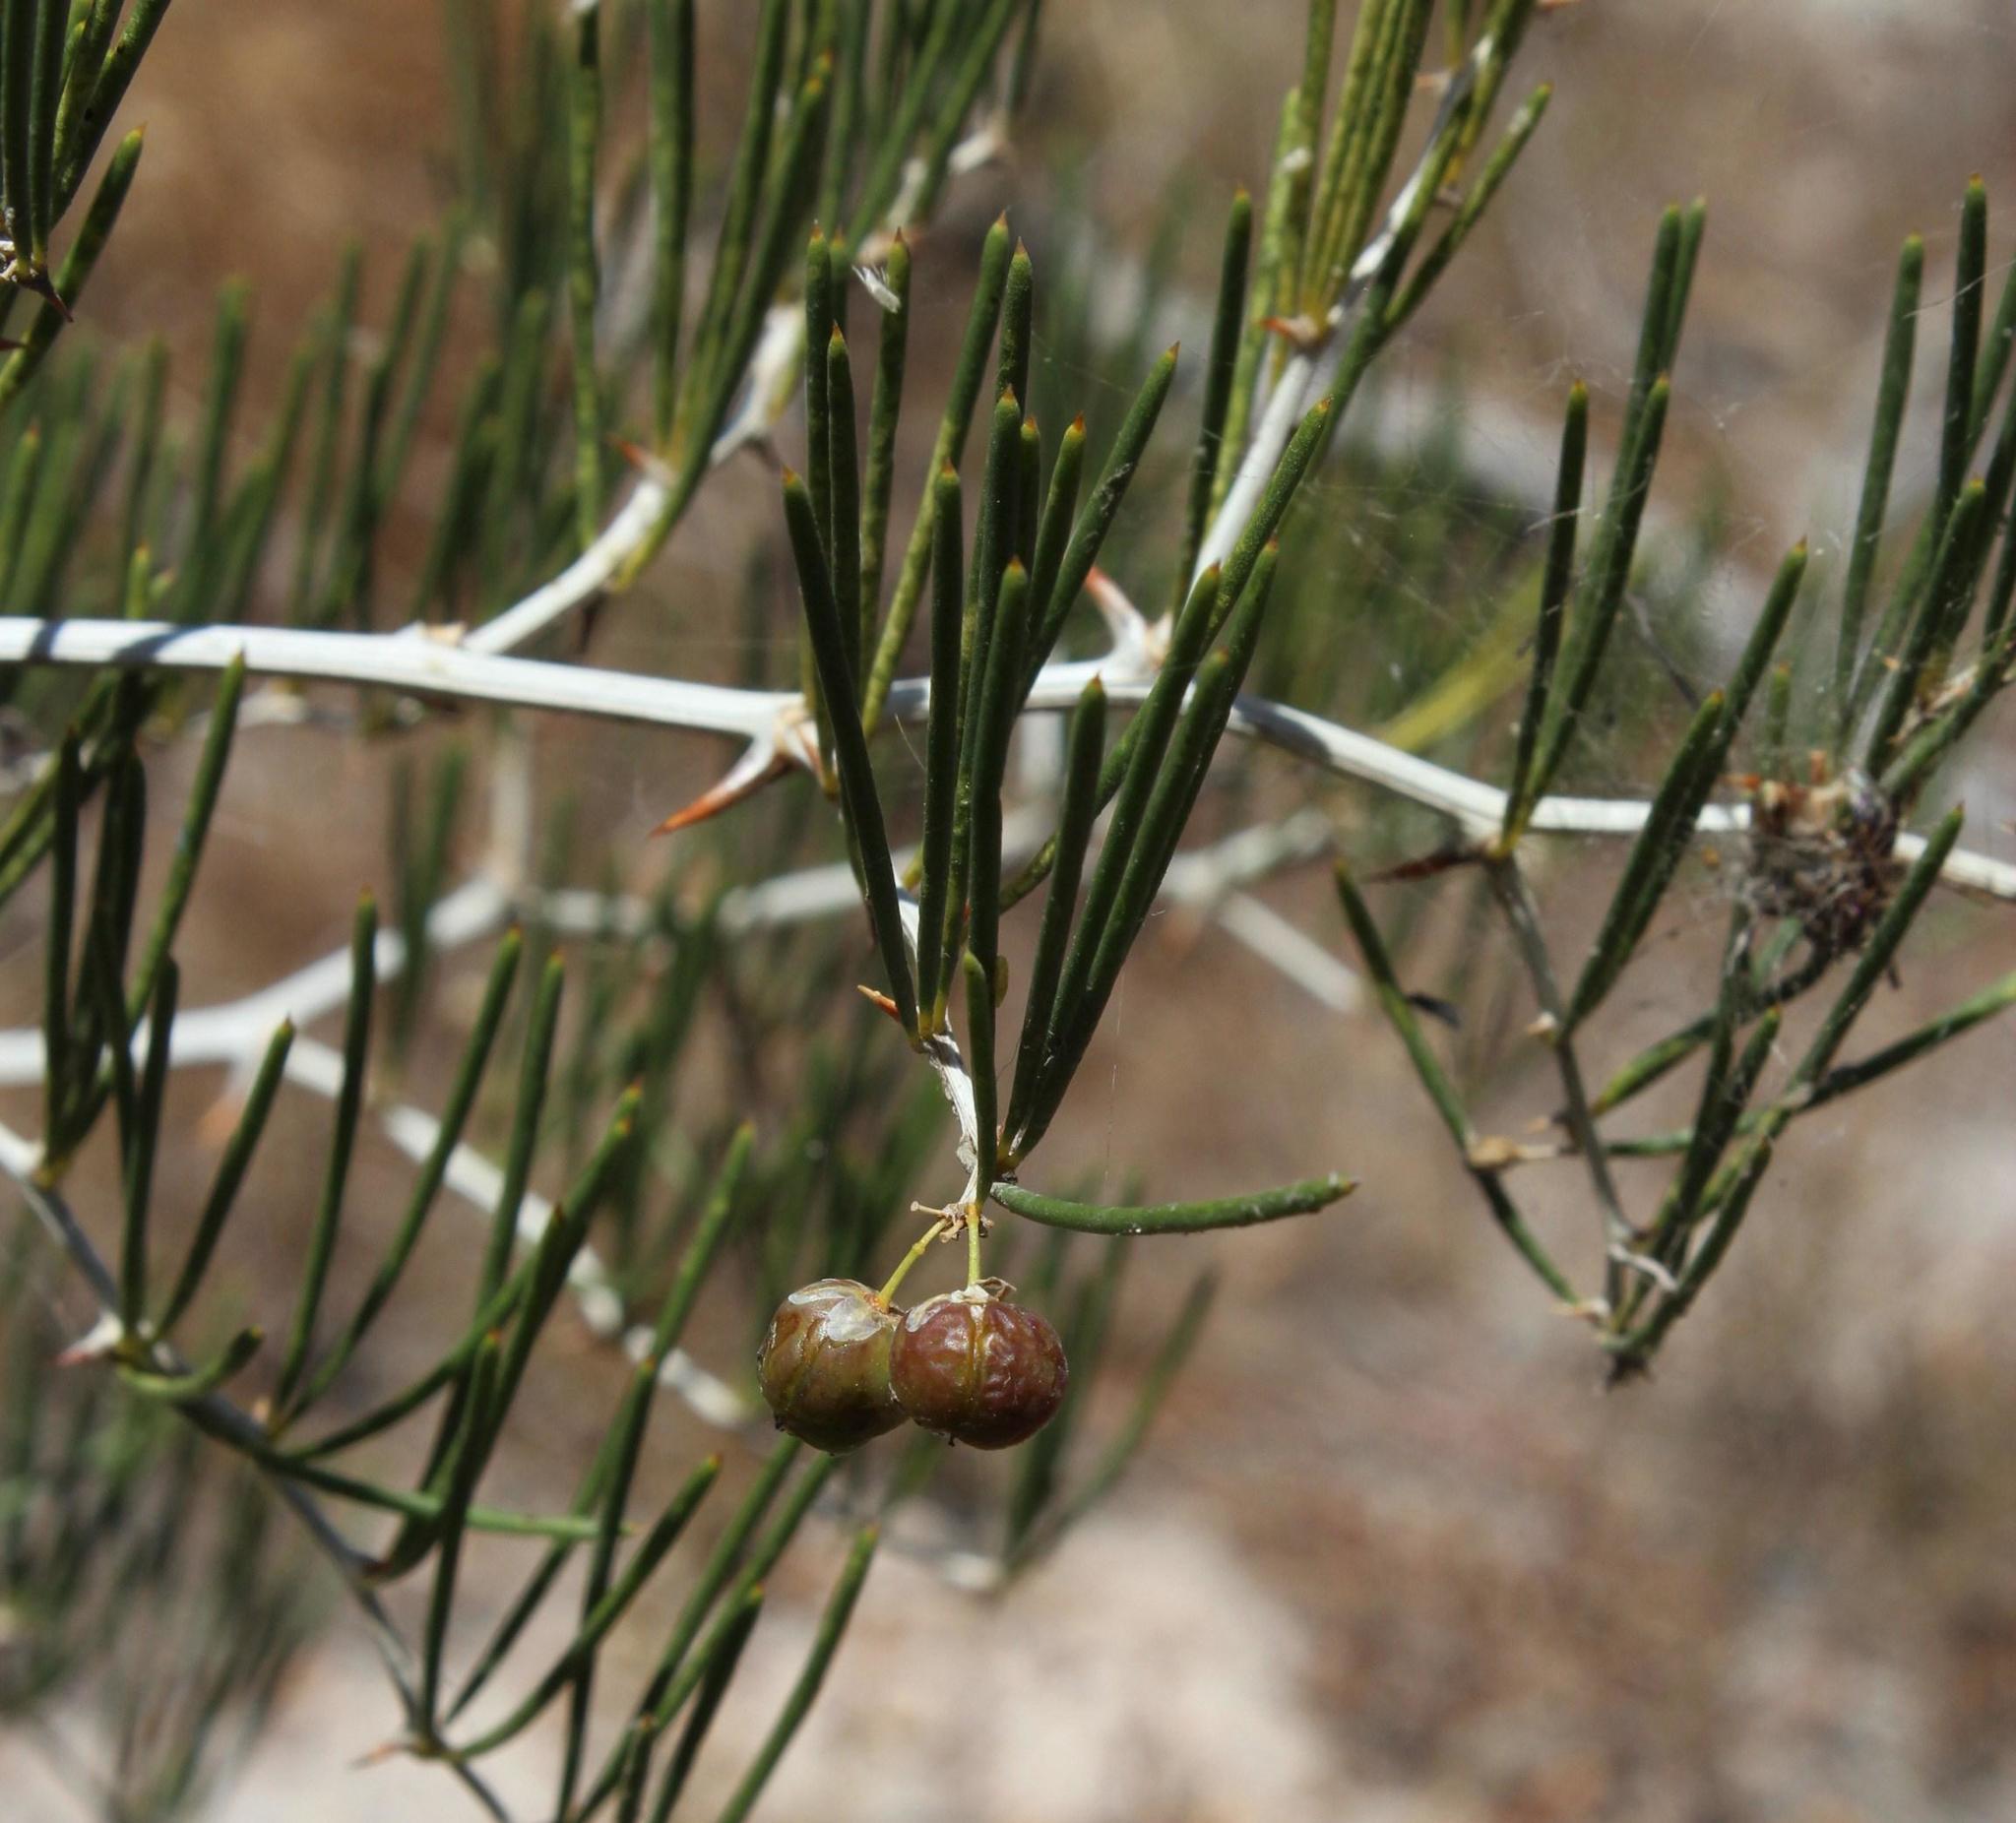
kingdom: Plantae
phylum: Tracheophyta
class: Liliopsida
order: Asparagales
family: Asparagaceae
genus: Asparagus
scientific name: Asparagus lignosus
